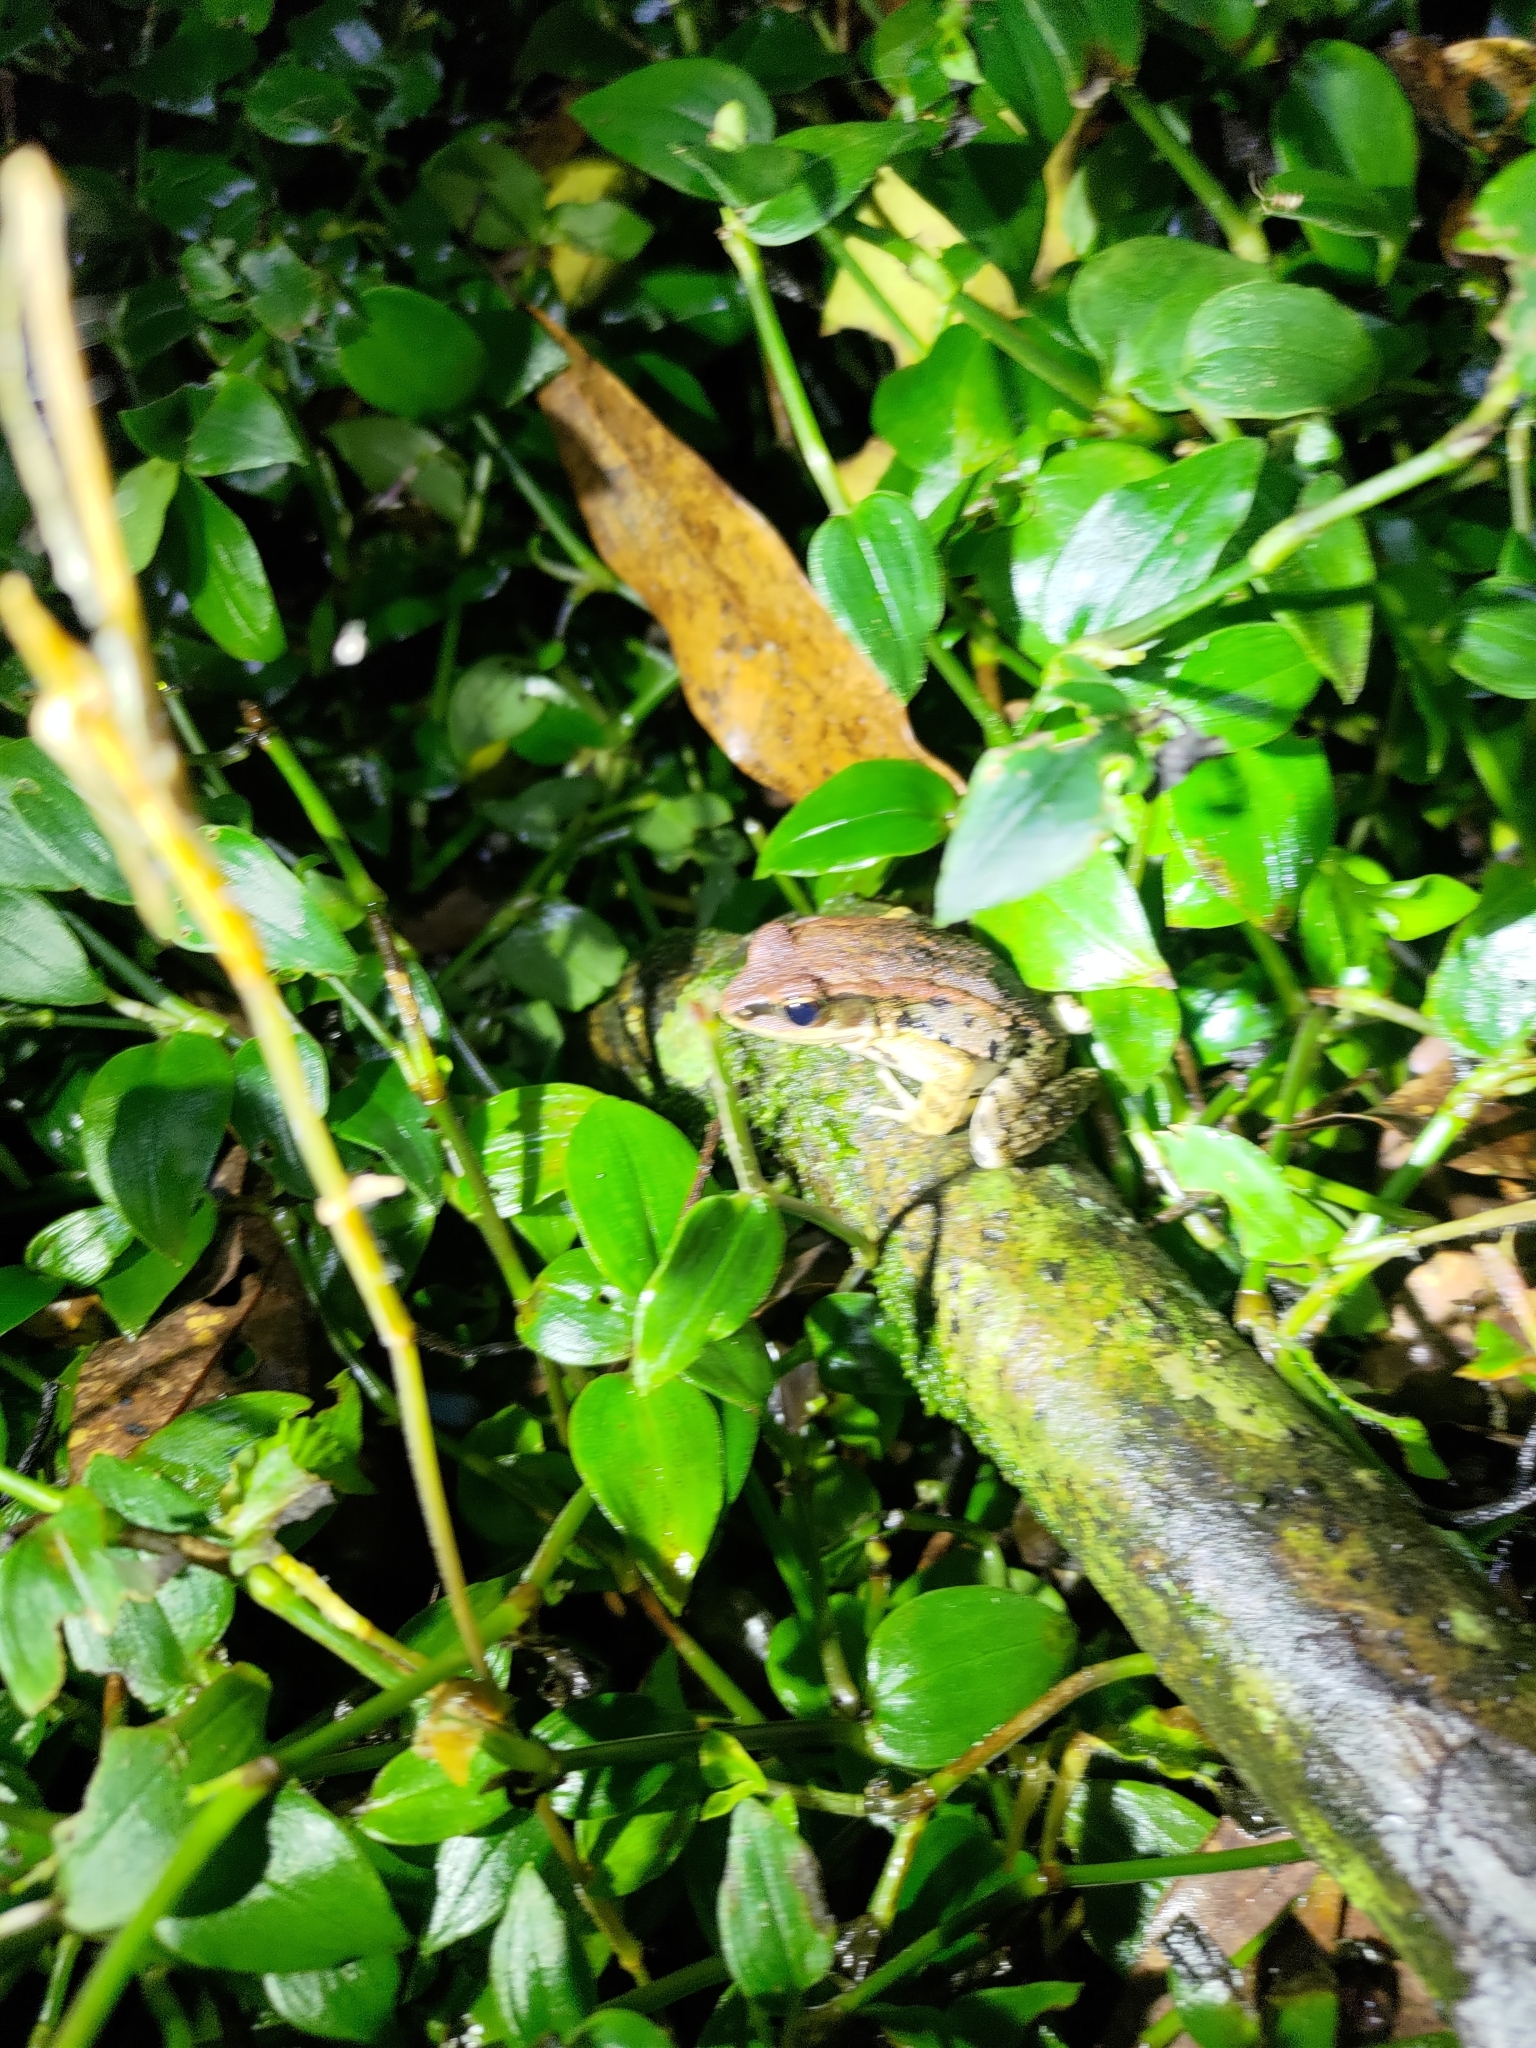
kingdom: Animalia
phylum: Chordata
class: Amphibia
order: Anura
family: Ranidae
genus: Hylarana
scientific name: Hylarana latouchii
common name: Broad-folded frog
